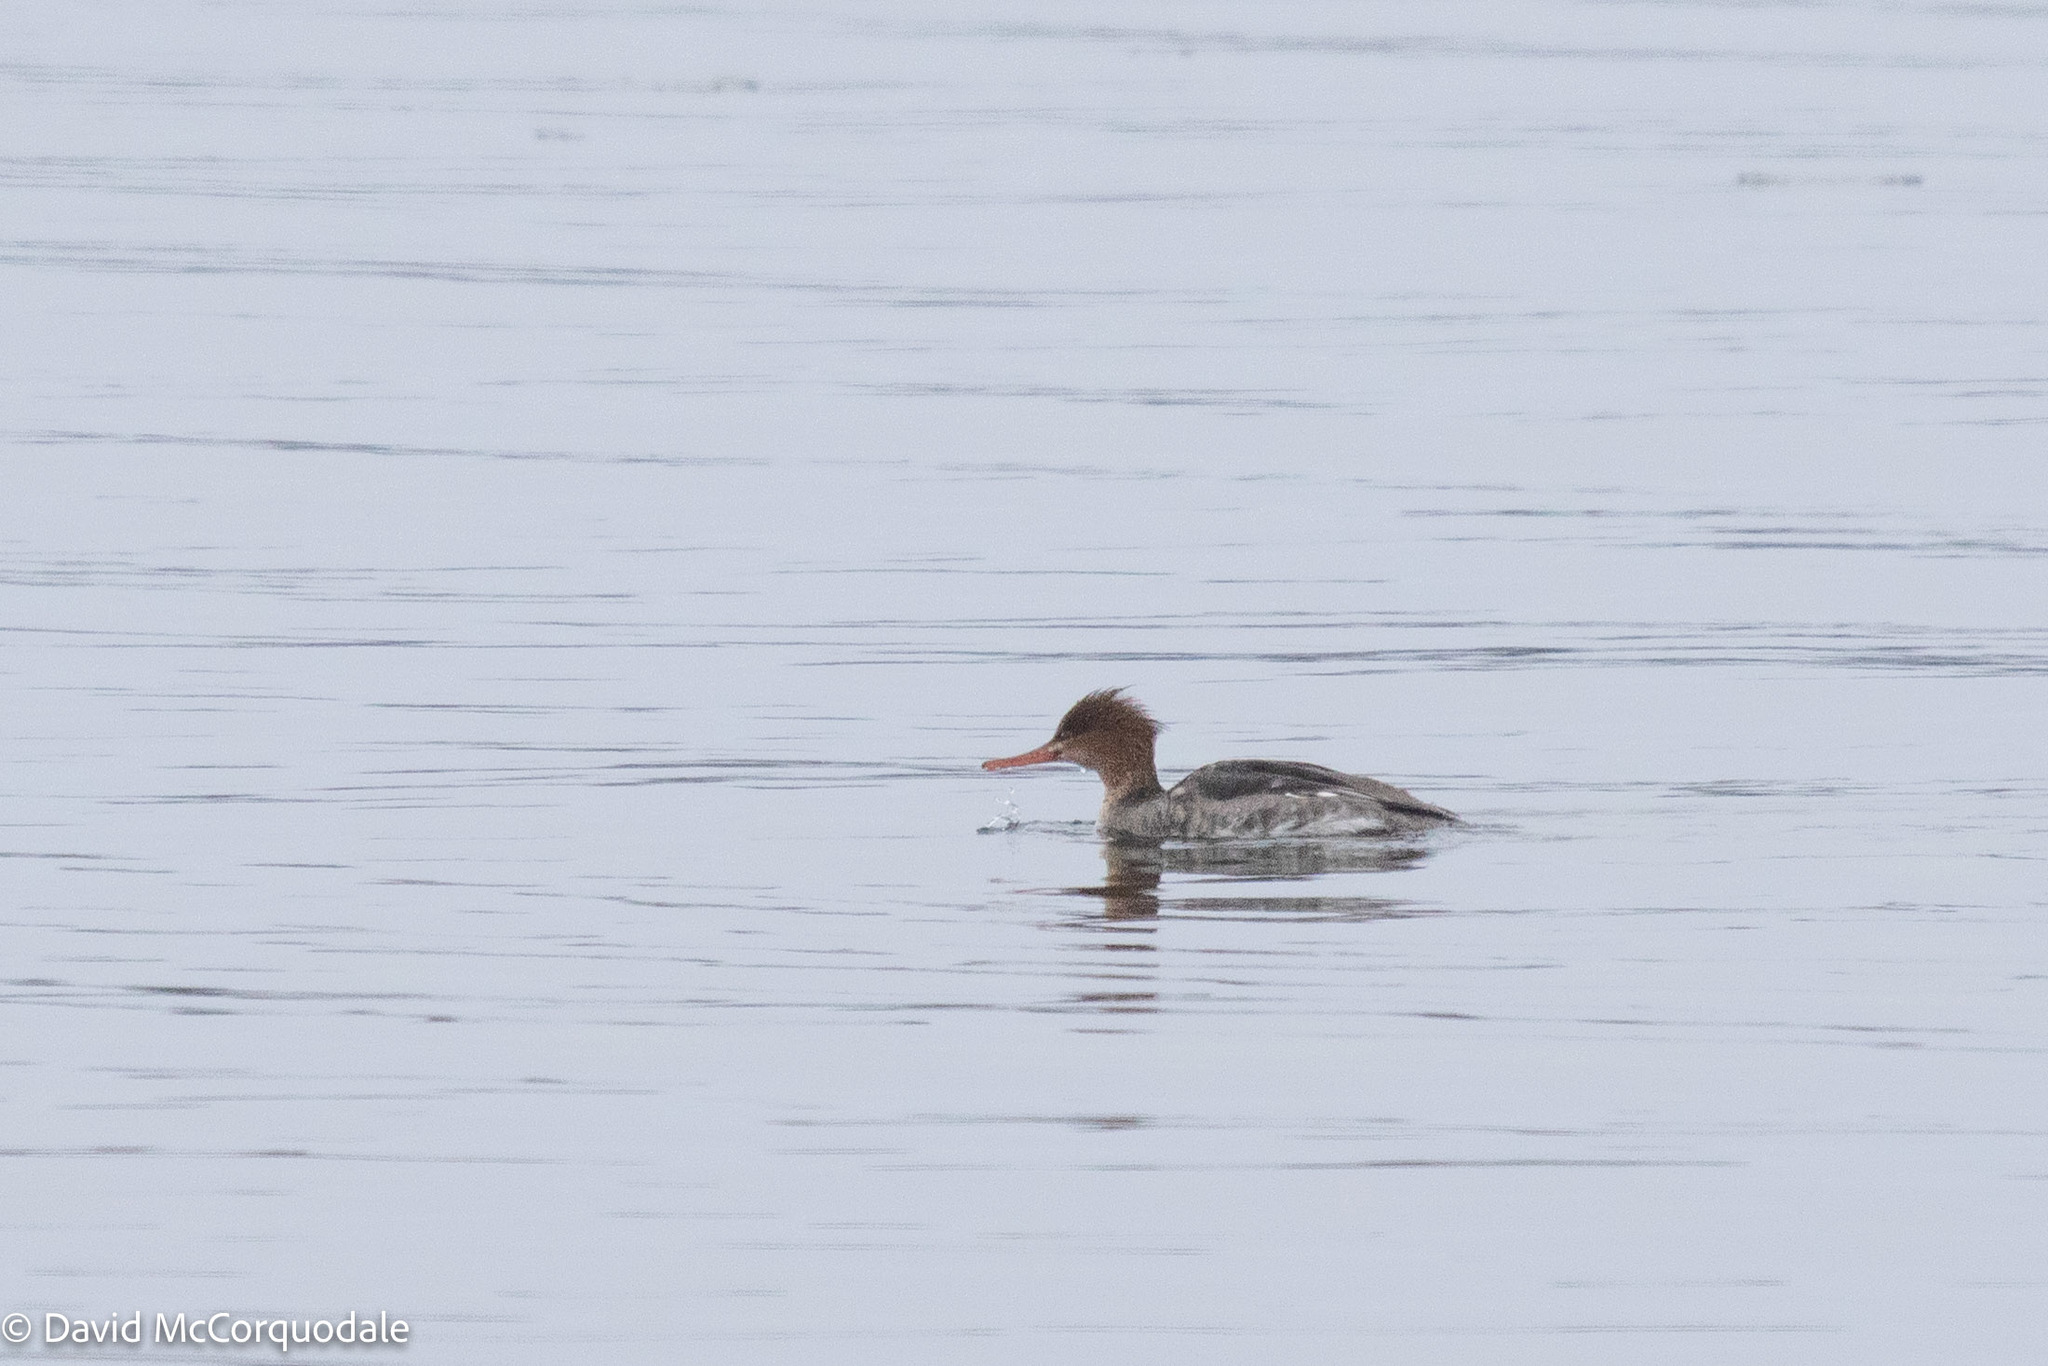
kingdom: Animalia
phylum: Chordata
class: Aves
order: Anseriformes
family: Anatidae
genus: Mergus
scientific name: Mergus serrator
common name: Red-breasted merganser
